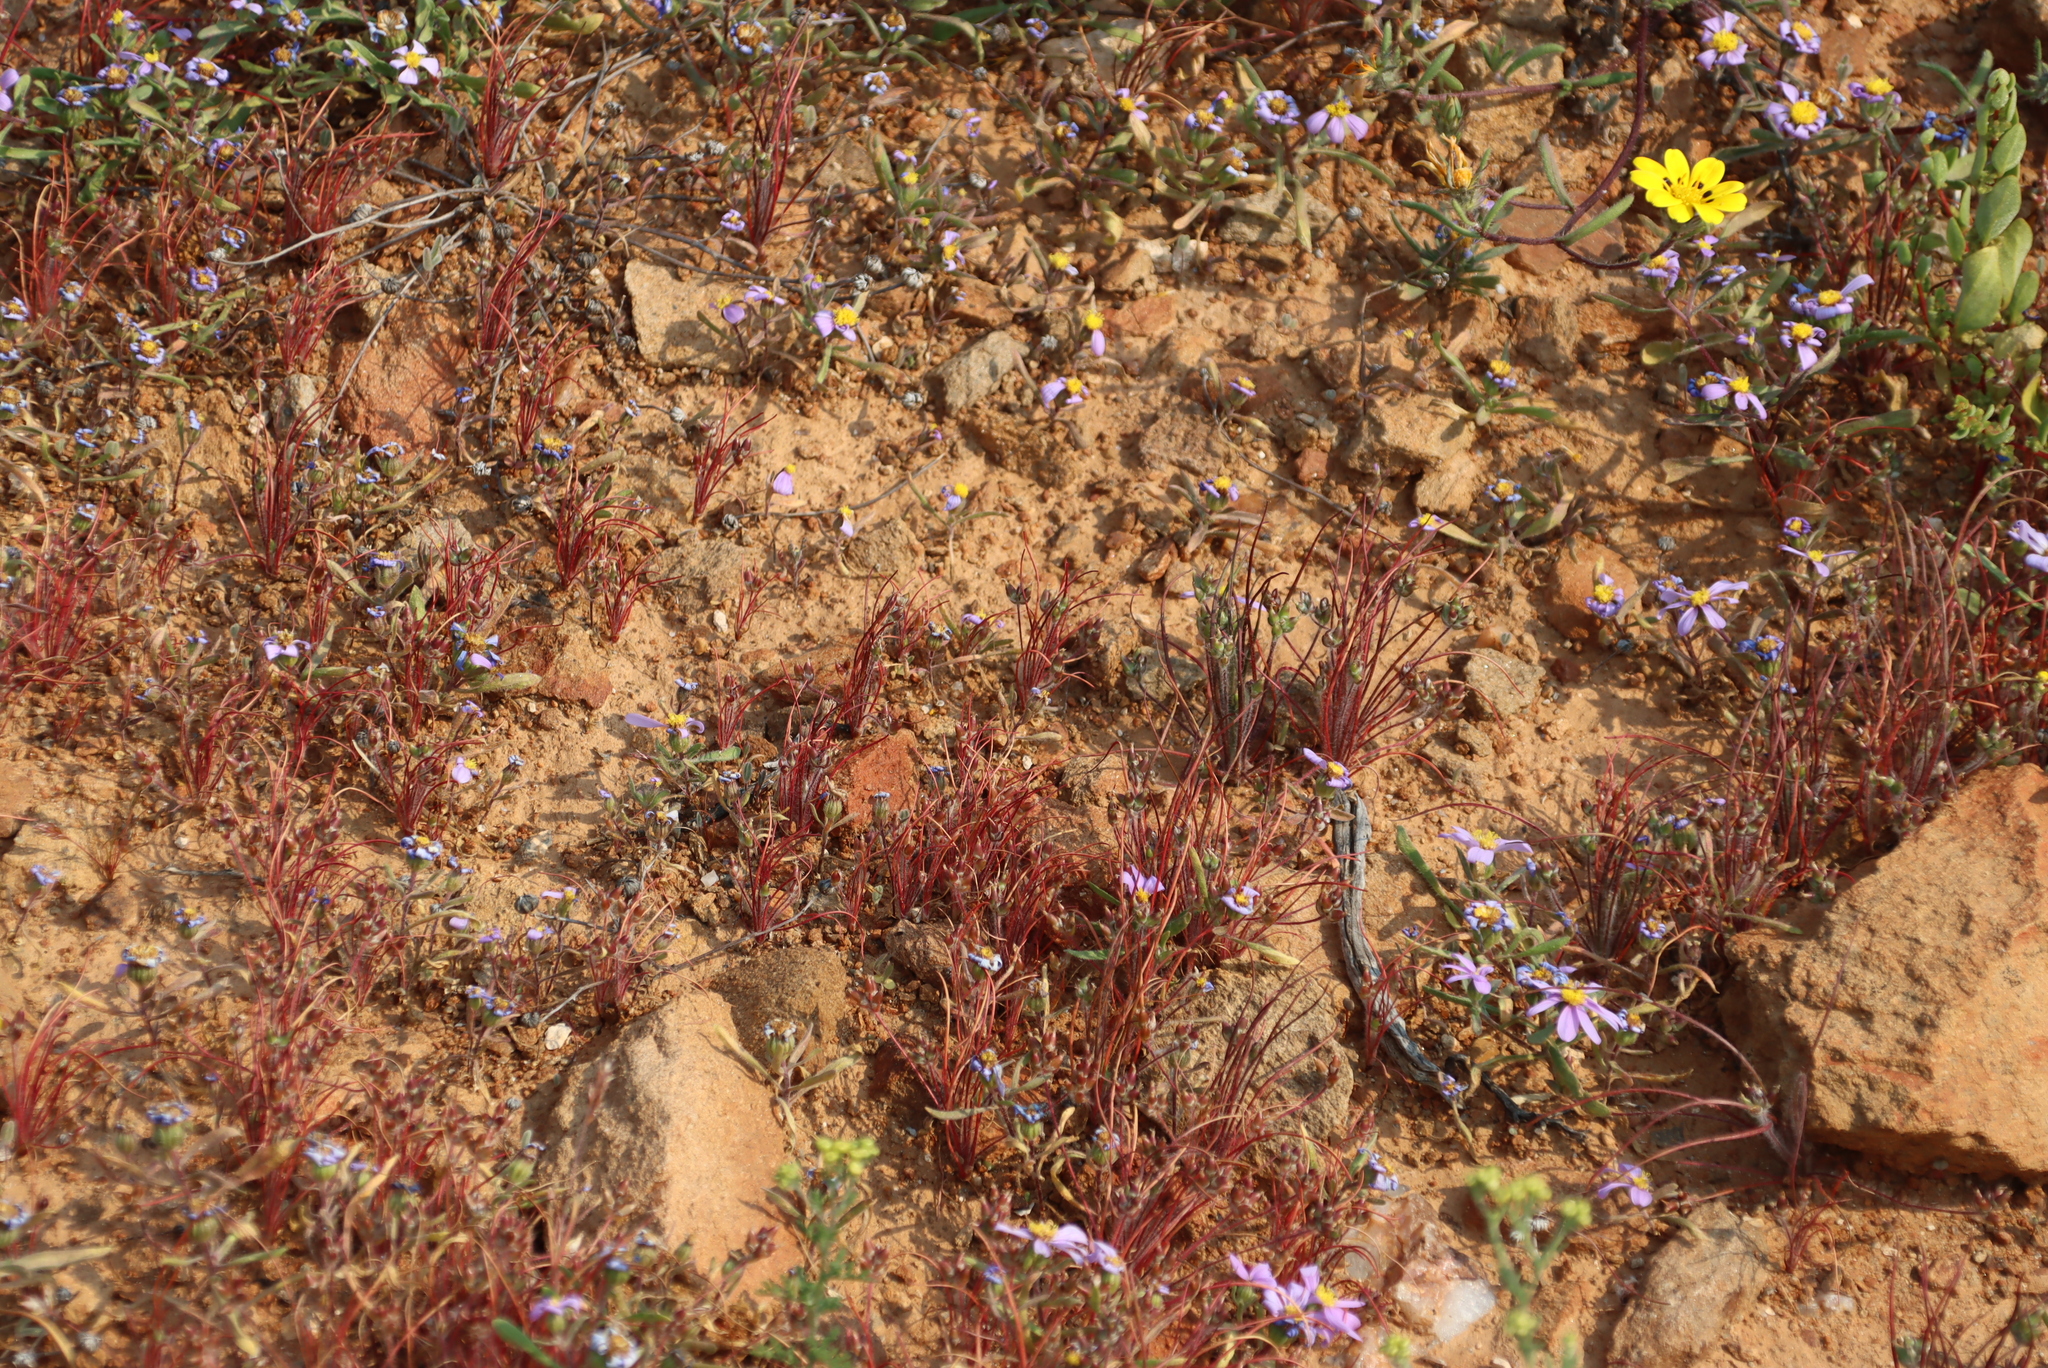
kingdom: Plantae
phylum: Tracheophyta
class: Magnoliopsida
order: Lamiales
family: Plantaginaceae
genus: Plantago
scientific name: Plantago cafra
